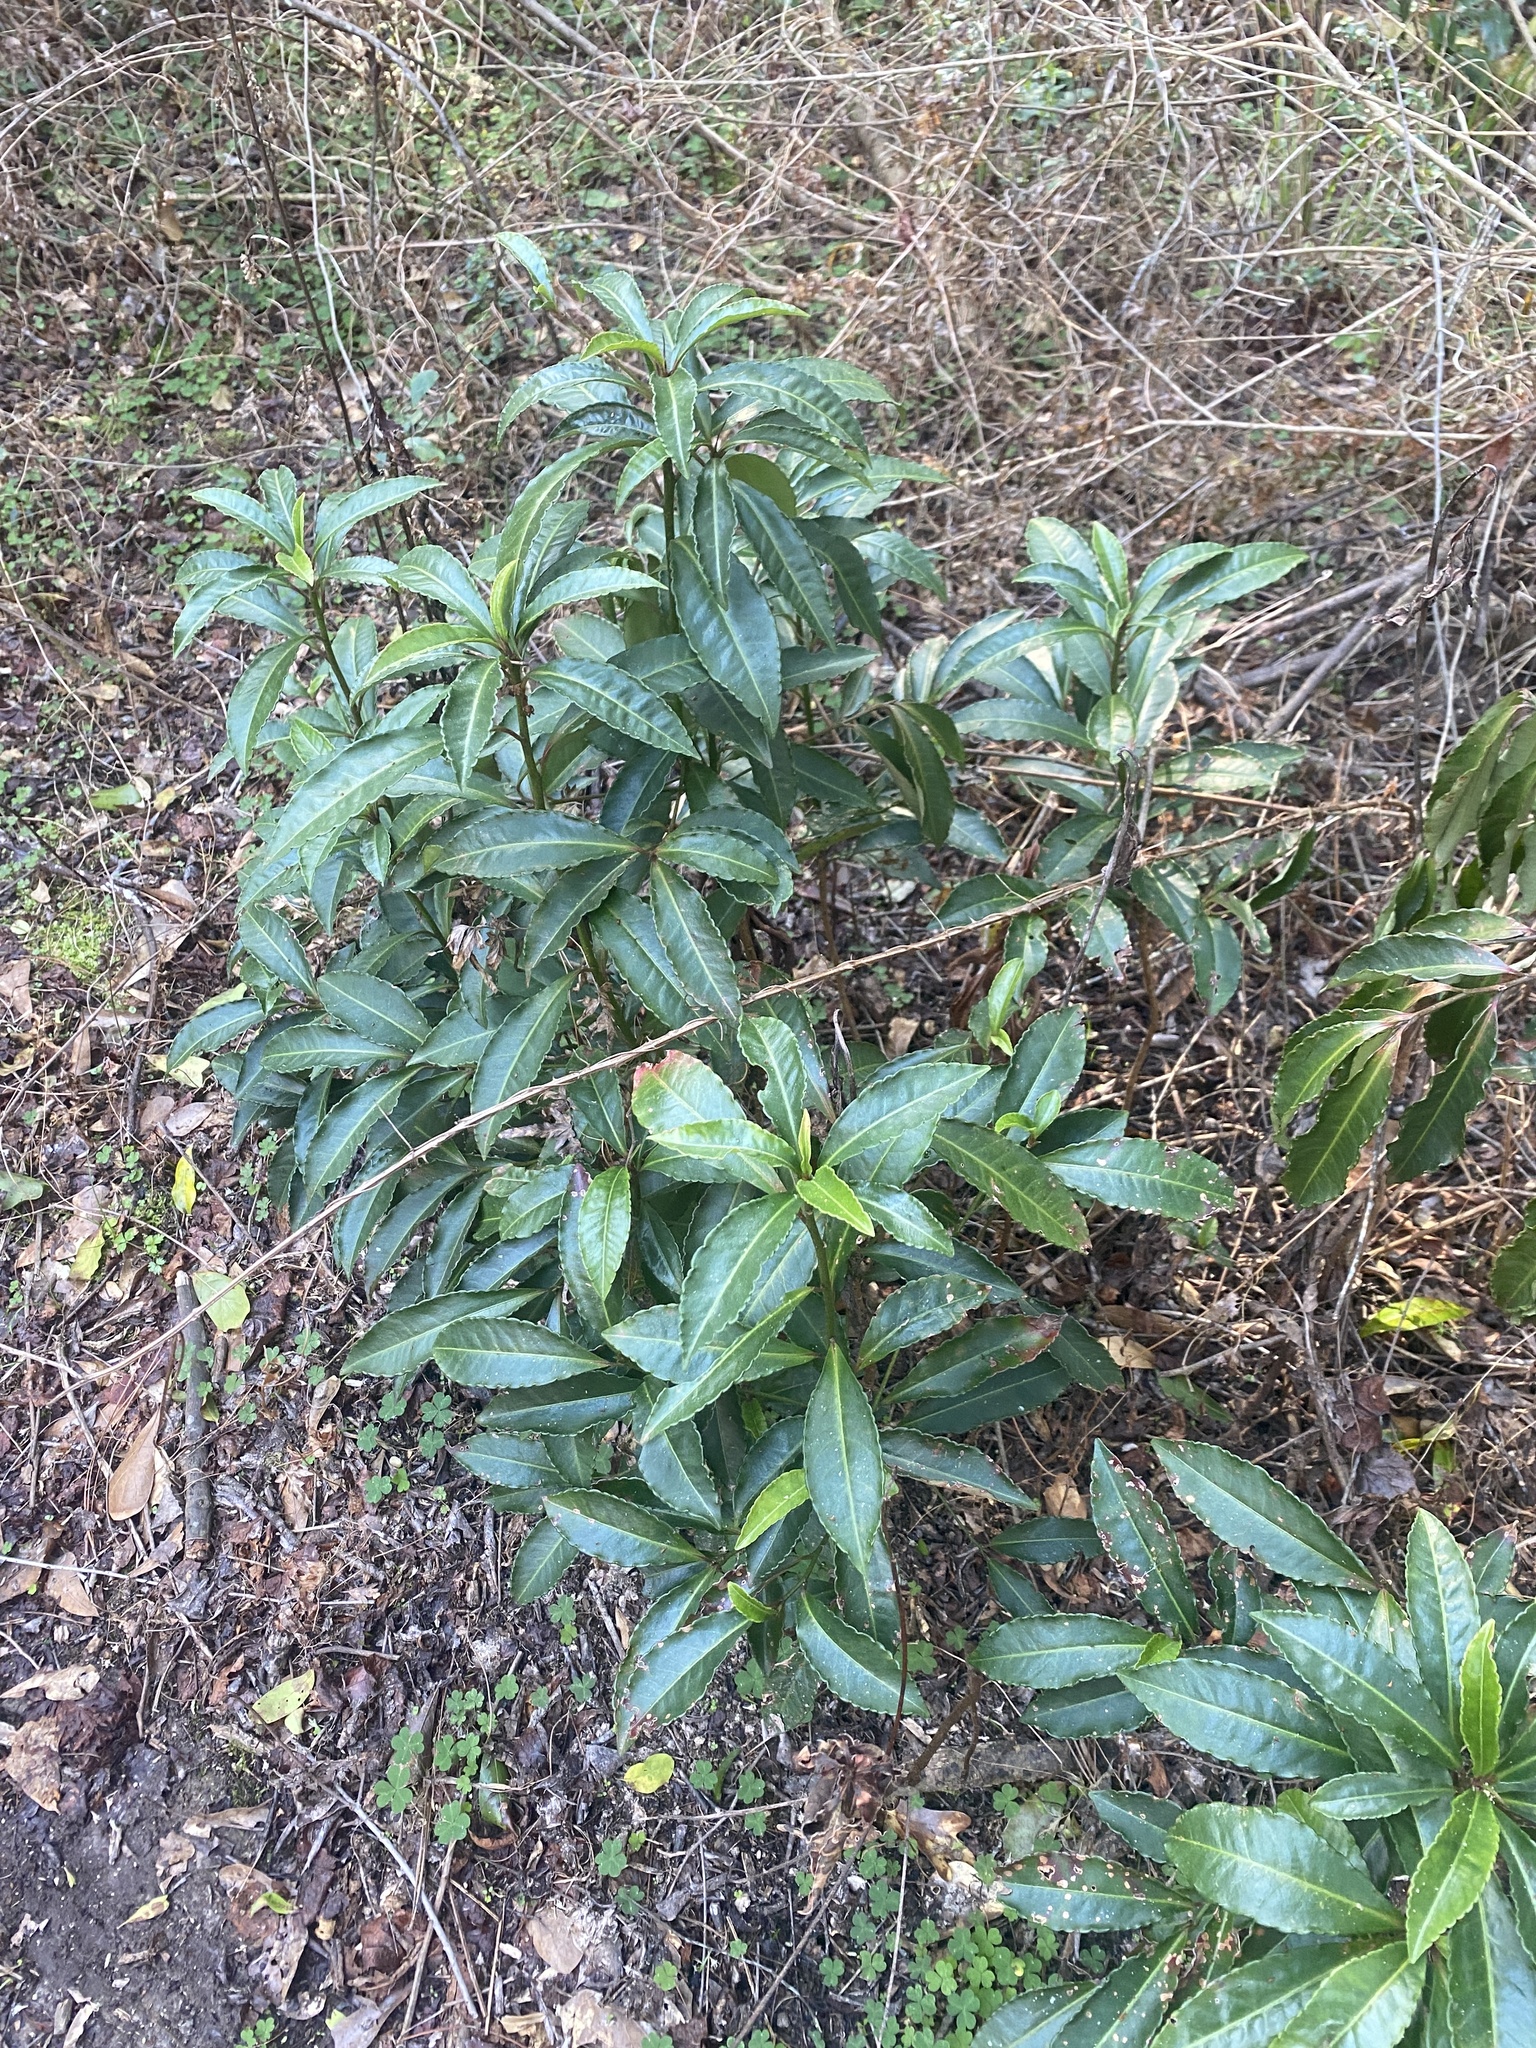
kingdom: Plantae
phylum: Tracheophyta
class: Magnoliopsida
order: Ericales
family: Primulaceae
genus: Ardisia
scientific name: Ardisia crenata
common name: Hen's eyes
